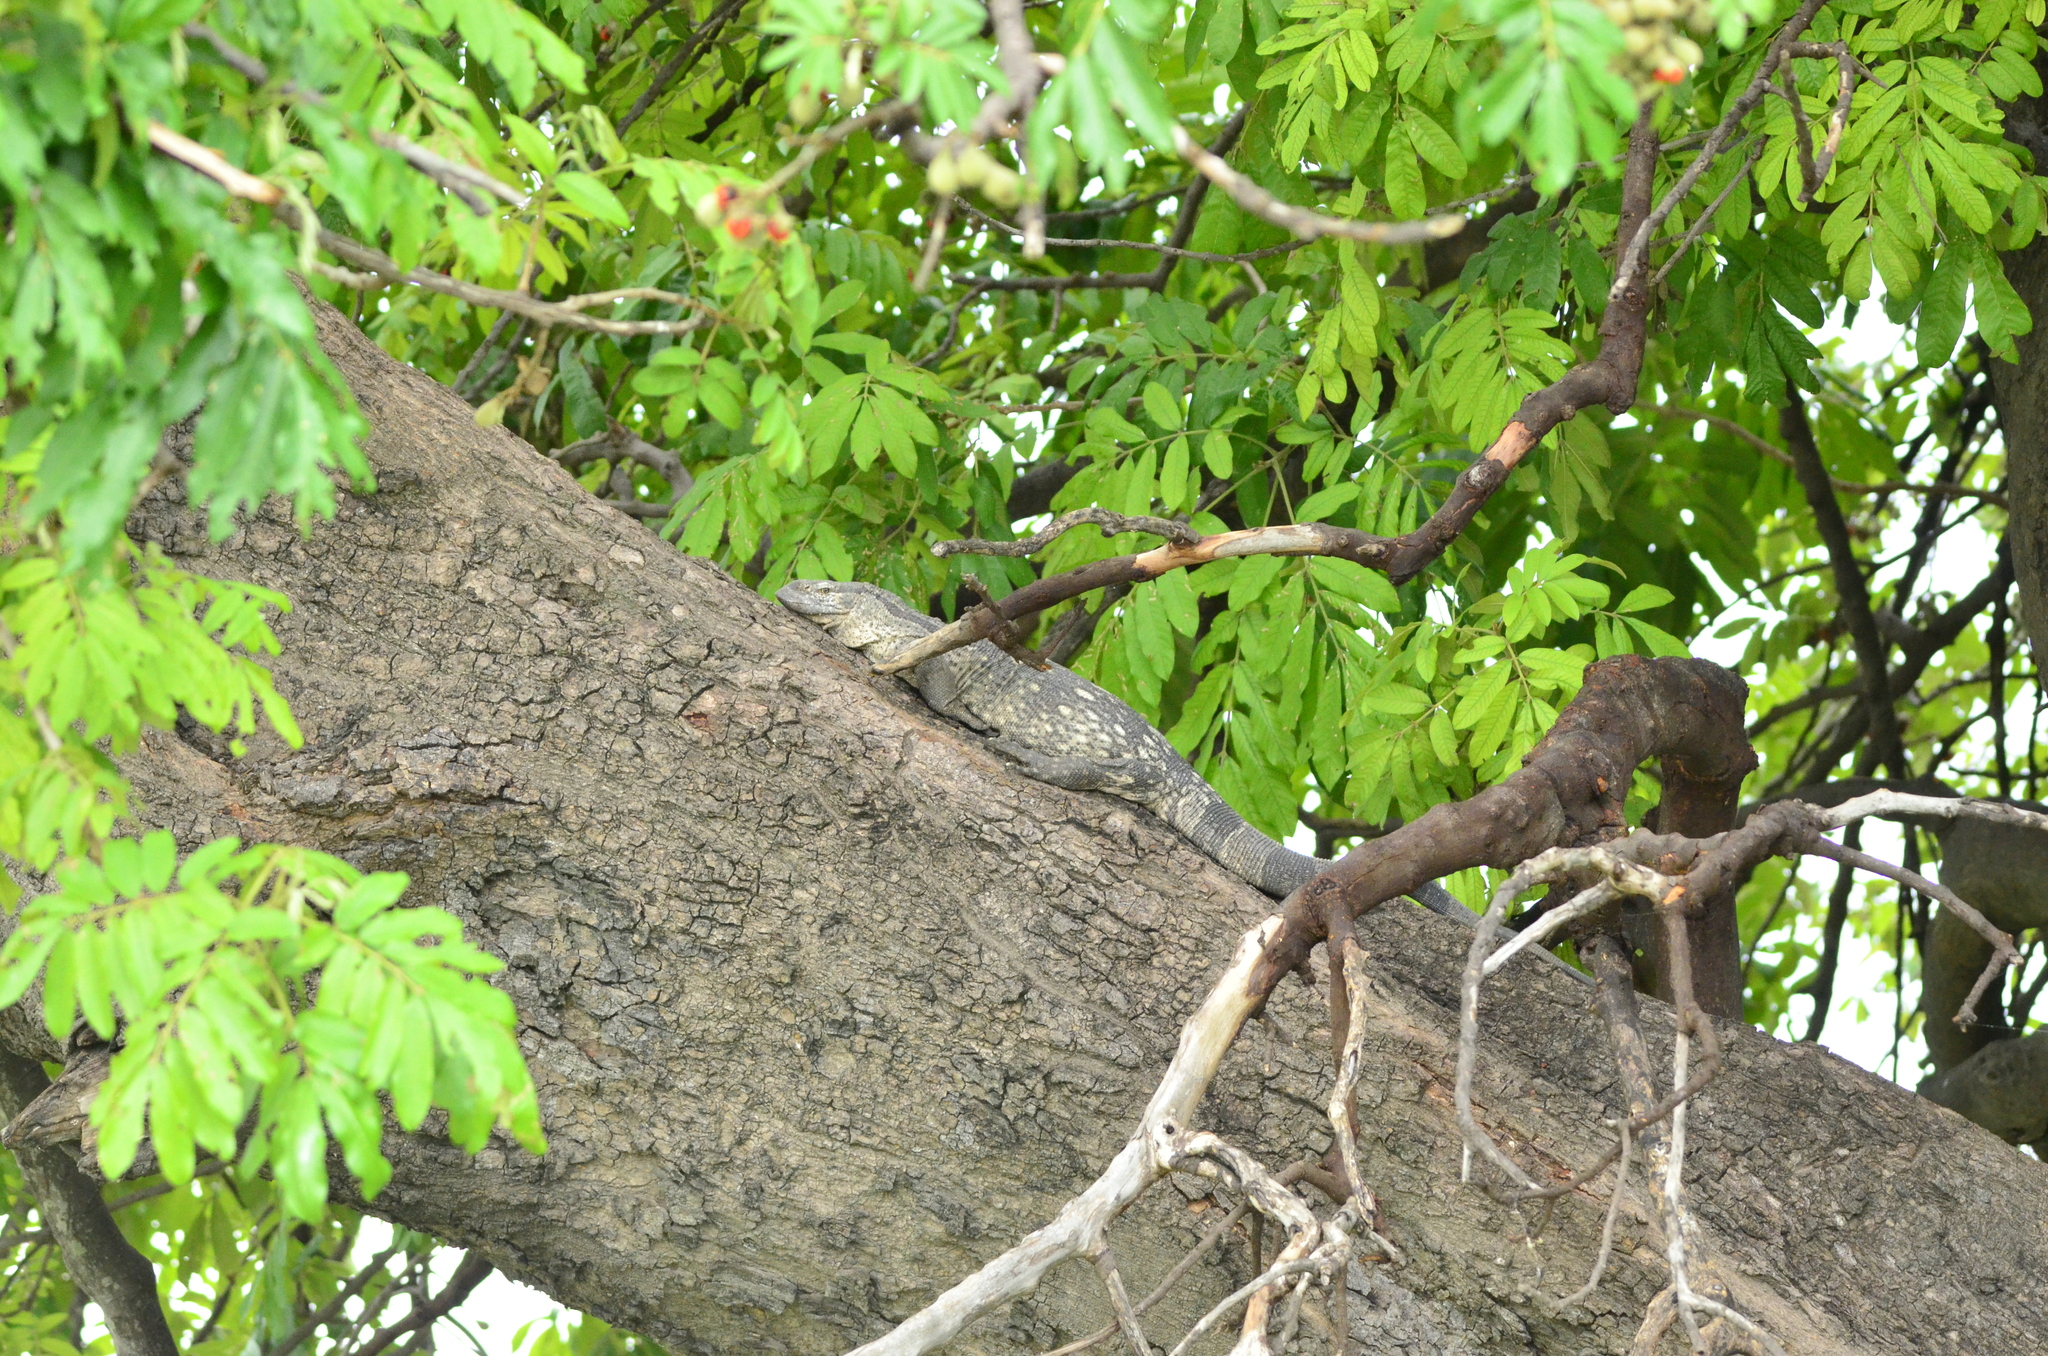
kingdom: Animalia
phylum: Chordata
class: Squamata
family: Varanidae
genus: Varanus
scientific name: Varanus albigularis
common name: White-throated monitor
